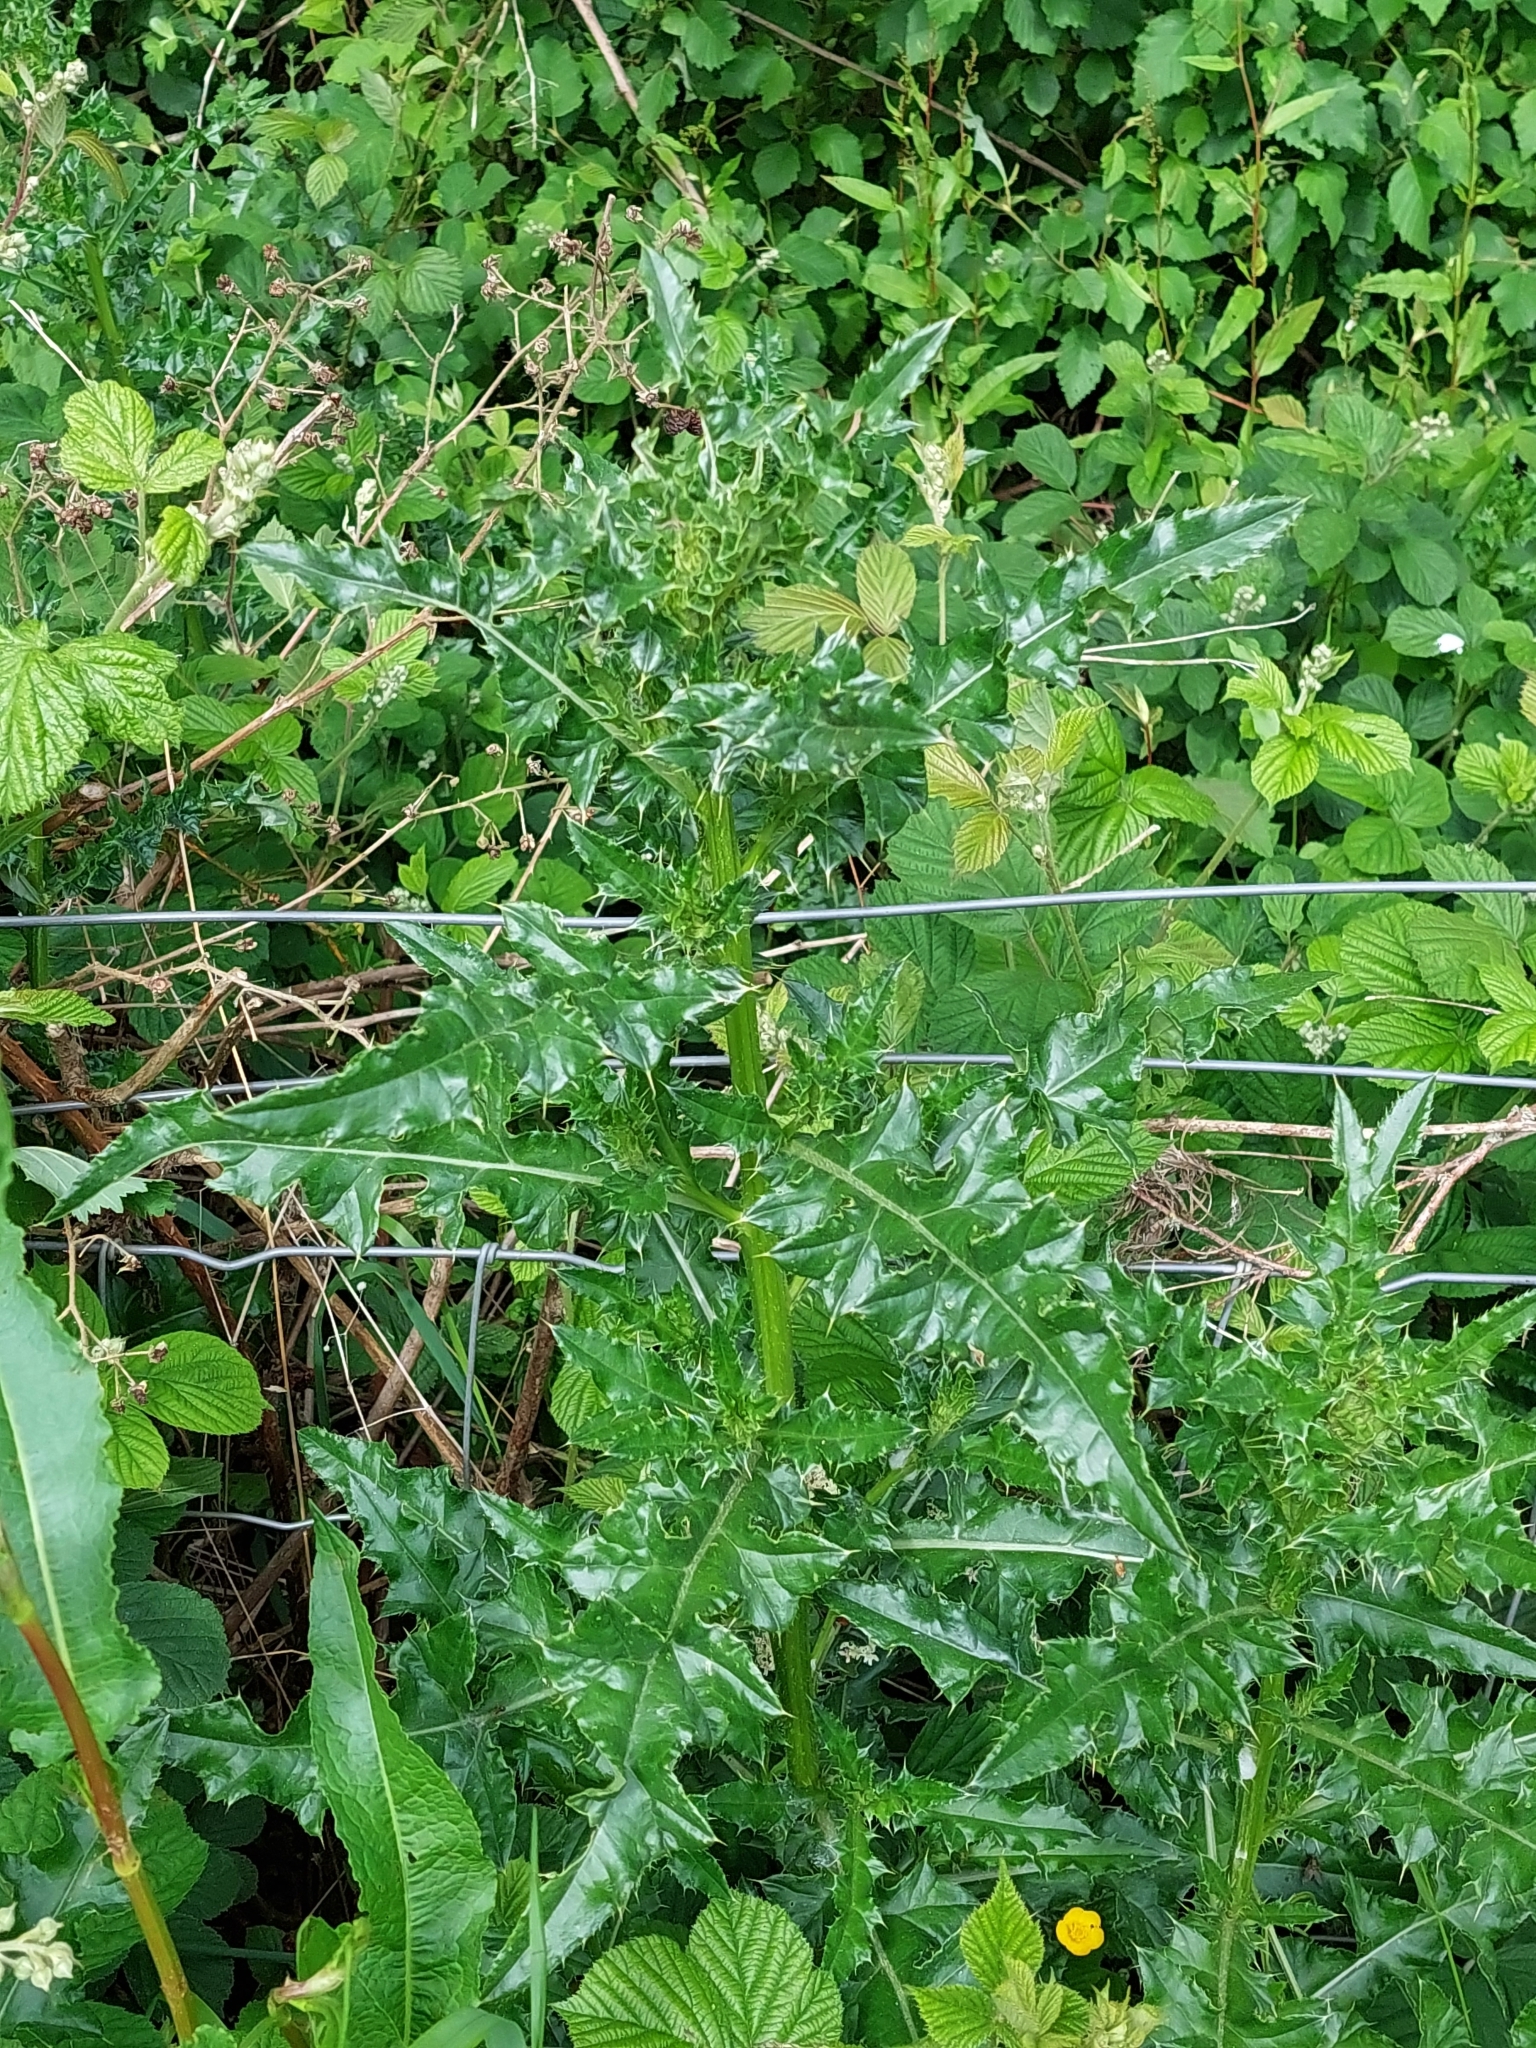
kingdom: Plantae
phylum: Tracheophyta
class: Magnoliopsida
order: Asterales
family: Asteraceae
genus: Cirsium
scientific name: Cirsium arvense
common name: Creeping thistle
